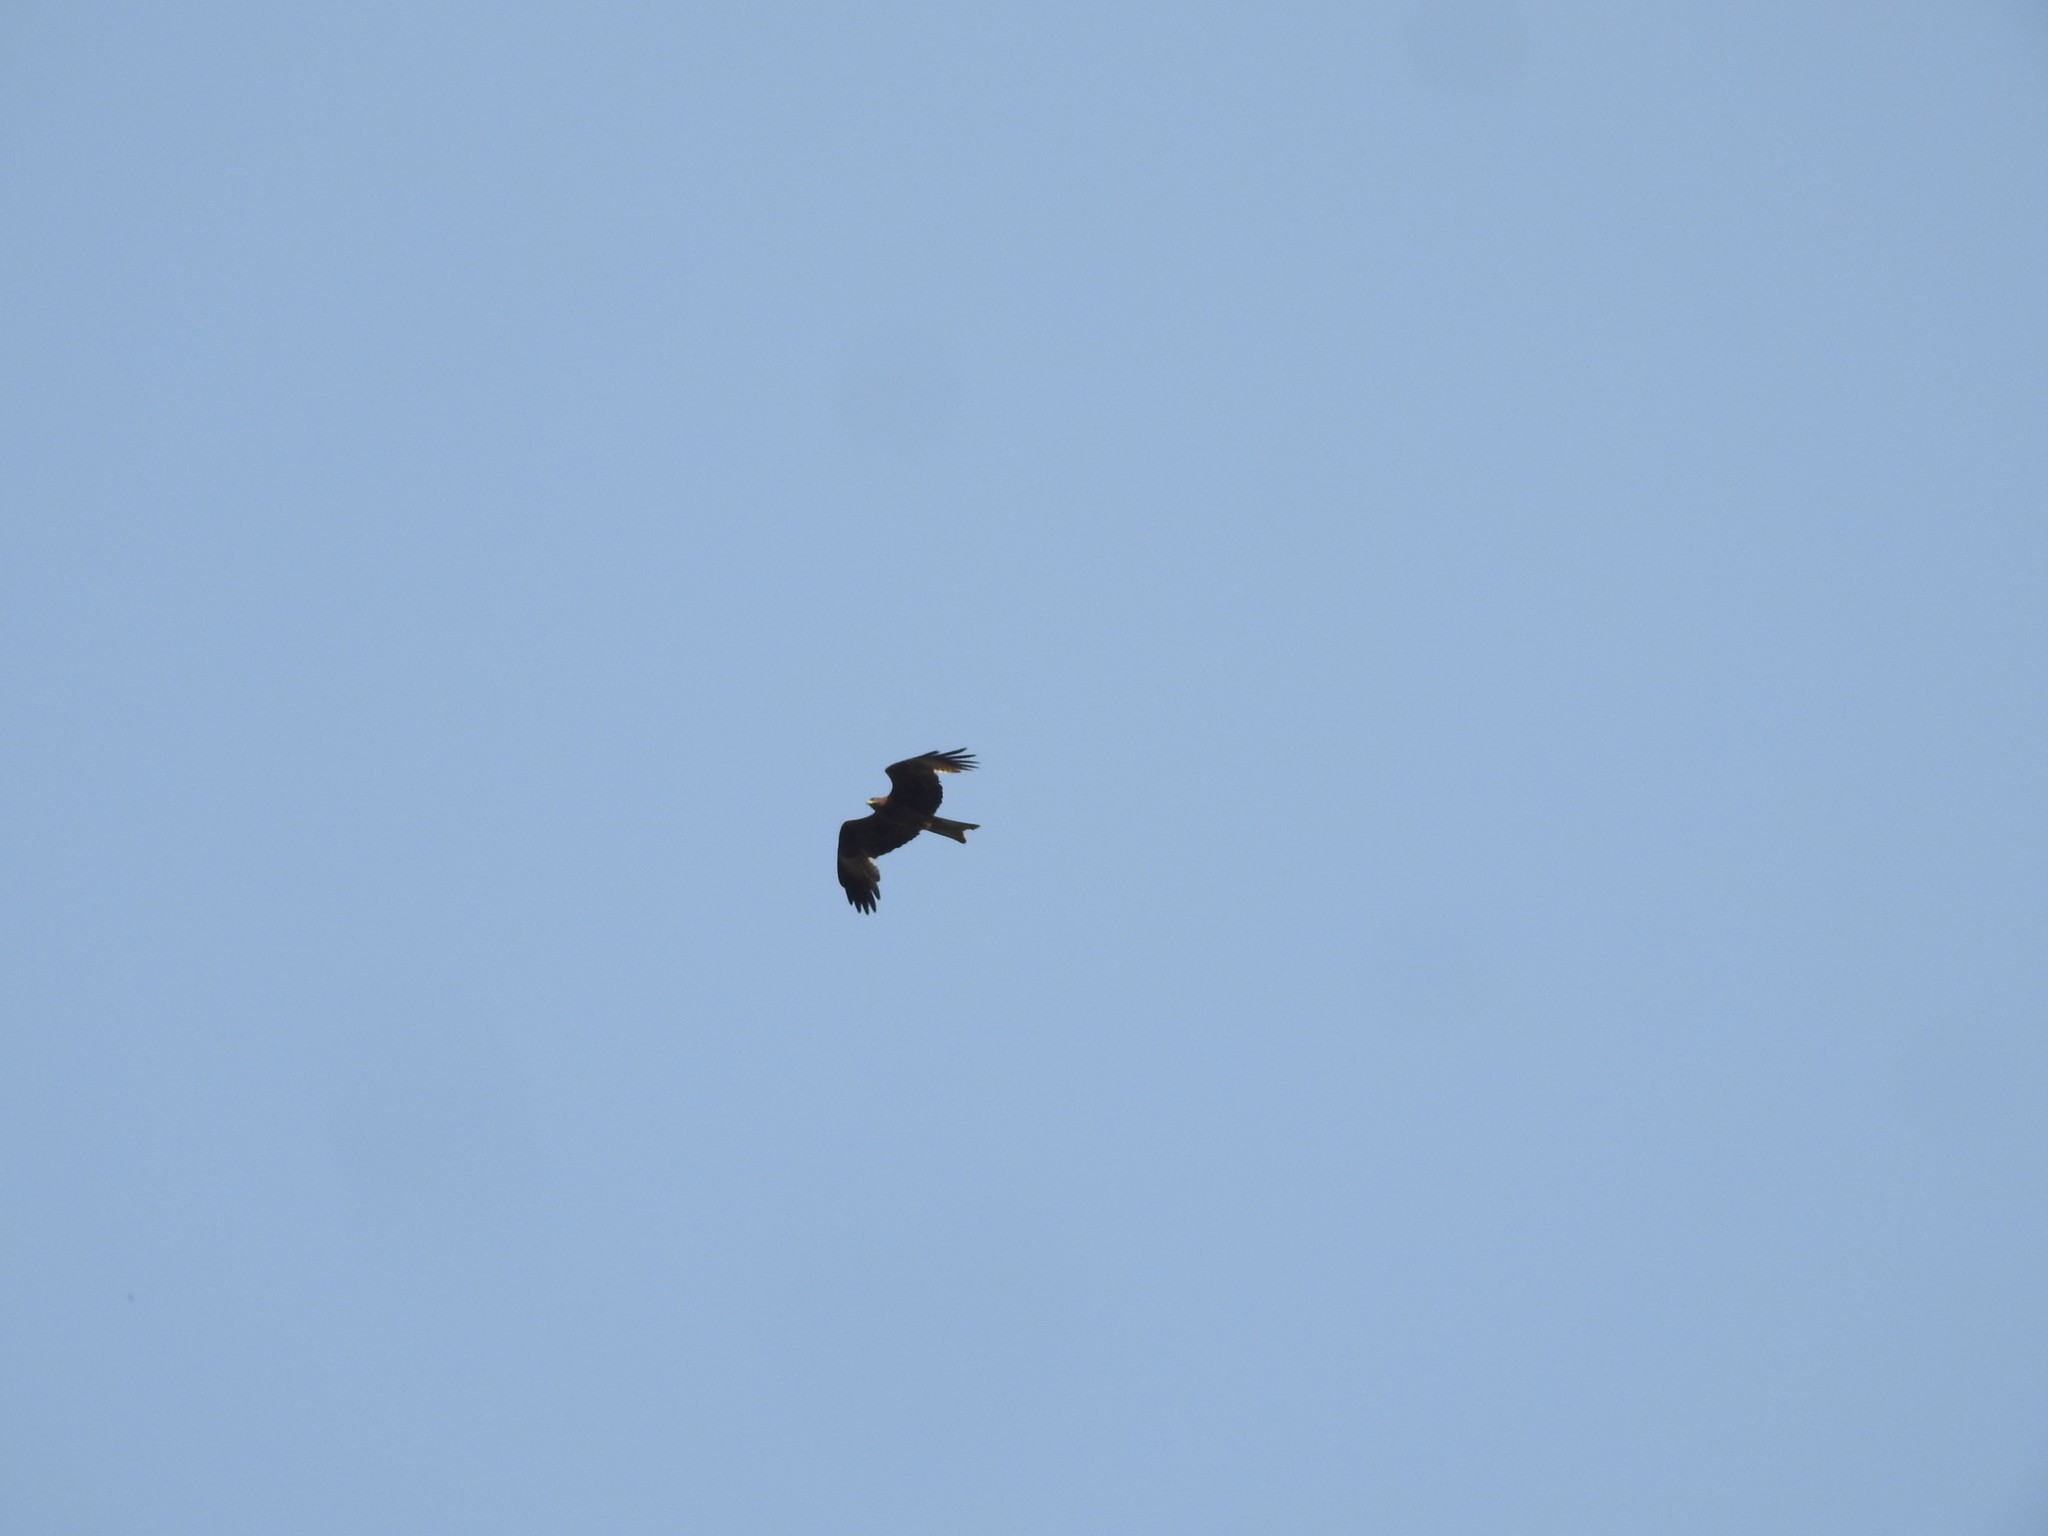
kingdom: Animalia
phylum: Chordata
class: Aves
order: Accipitriformes
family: Accipitridae
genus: Milvus
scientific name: Milvus migrans
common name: Black kite
